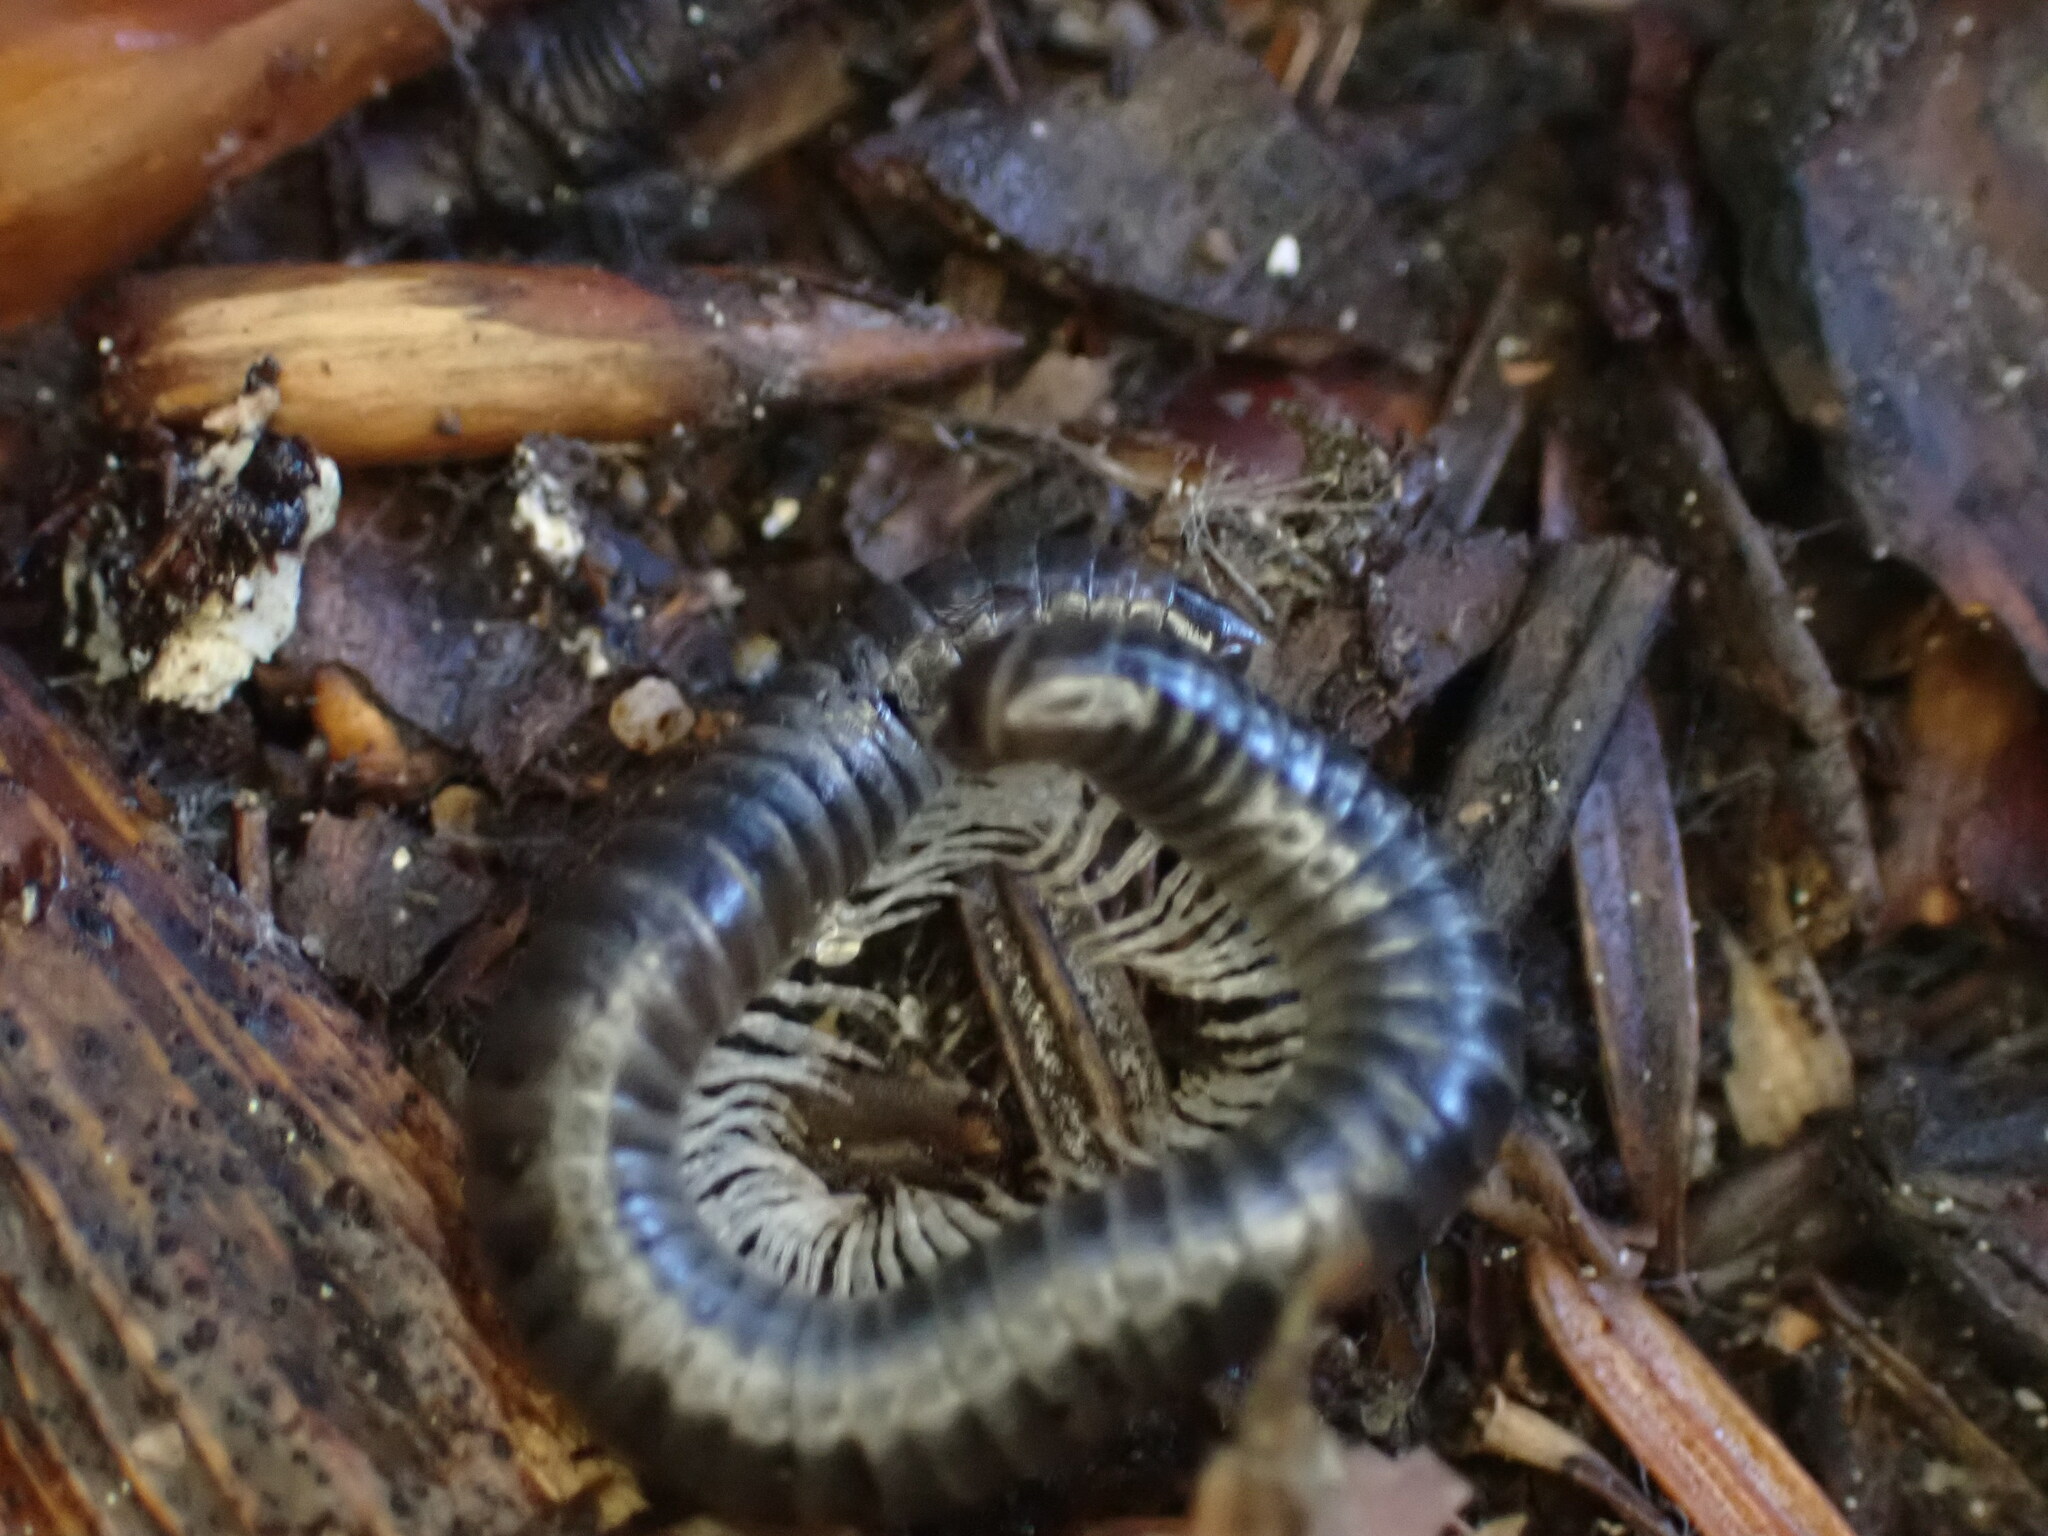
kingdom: Animalia
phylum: Arthropoda
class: Diplopoda
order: Julida
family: Julidae
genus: Tachypodoiulus
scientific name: Tachypodoiulus niger
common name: White-legged snake millipede
